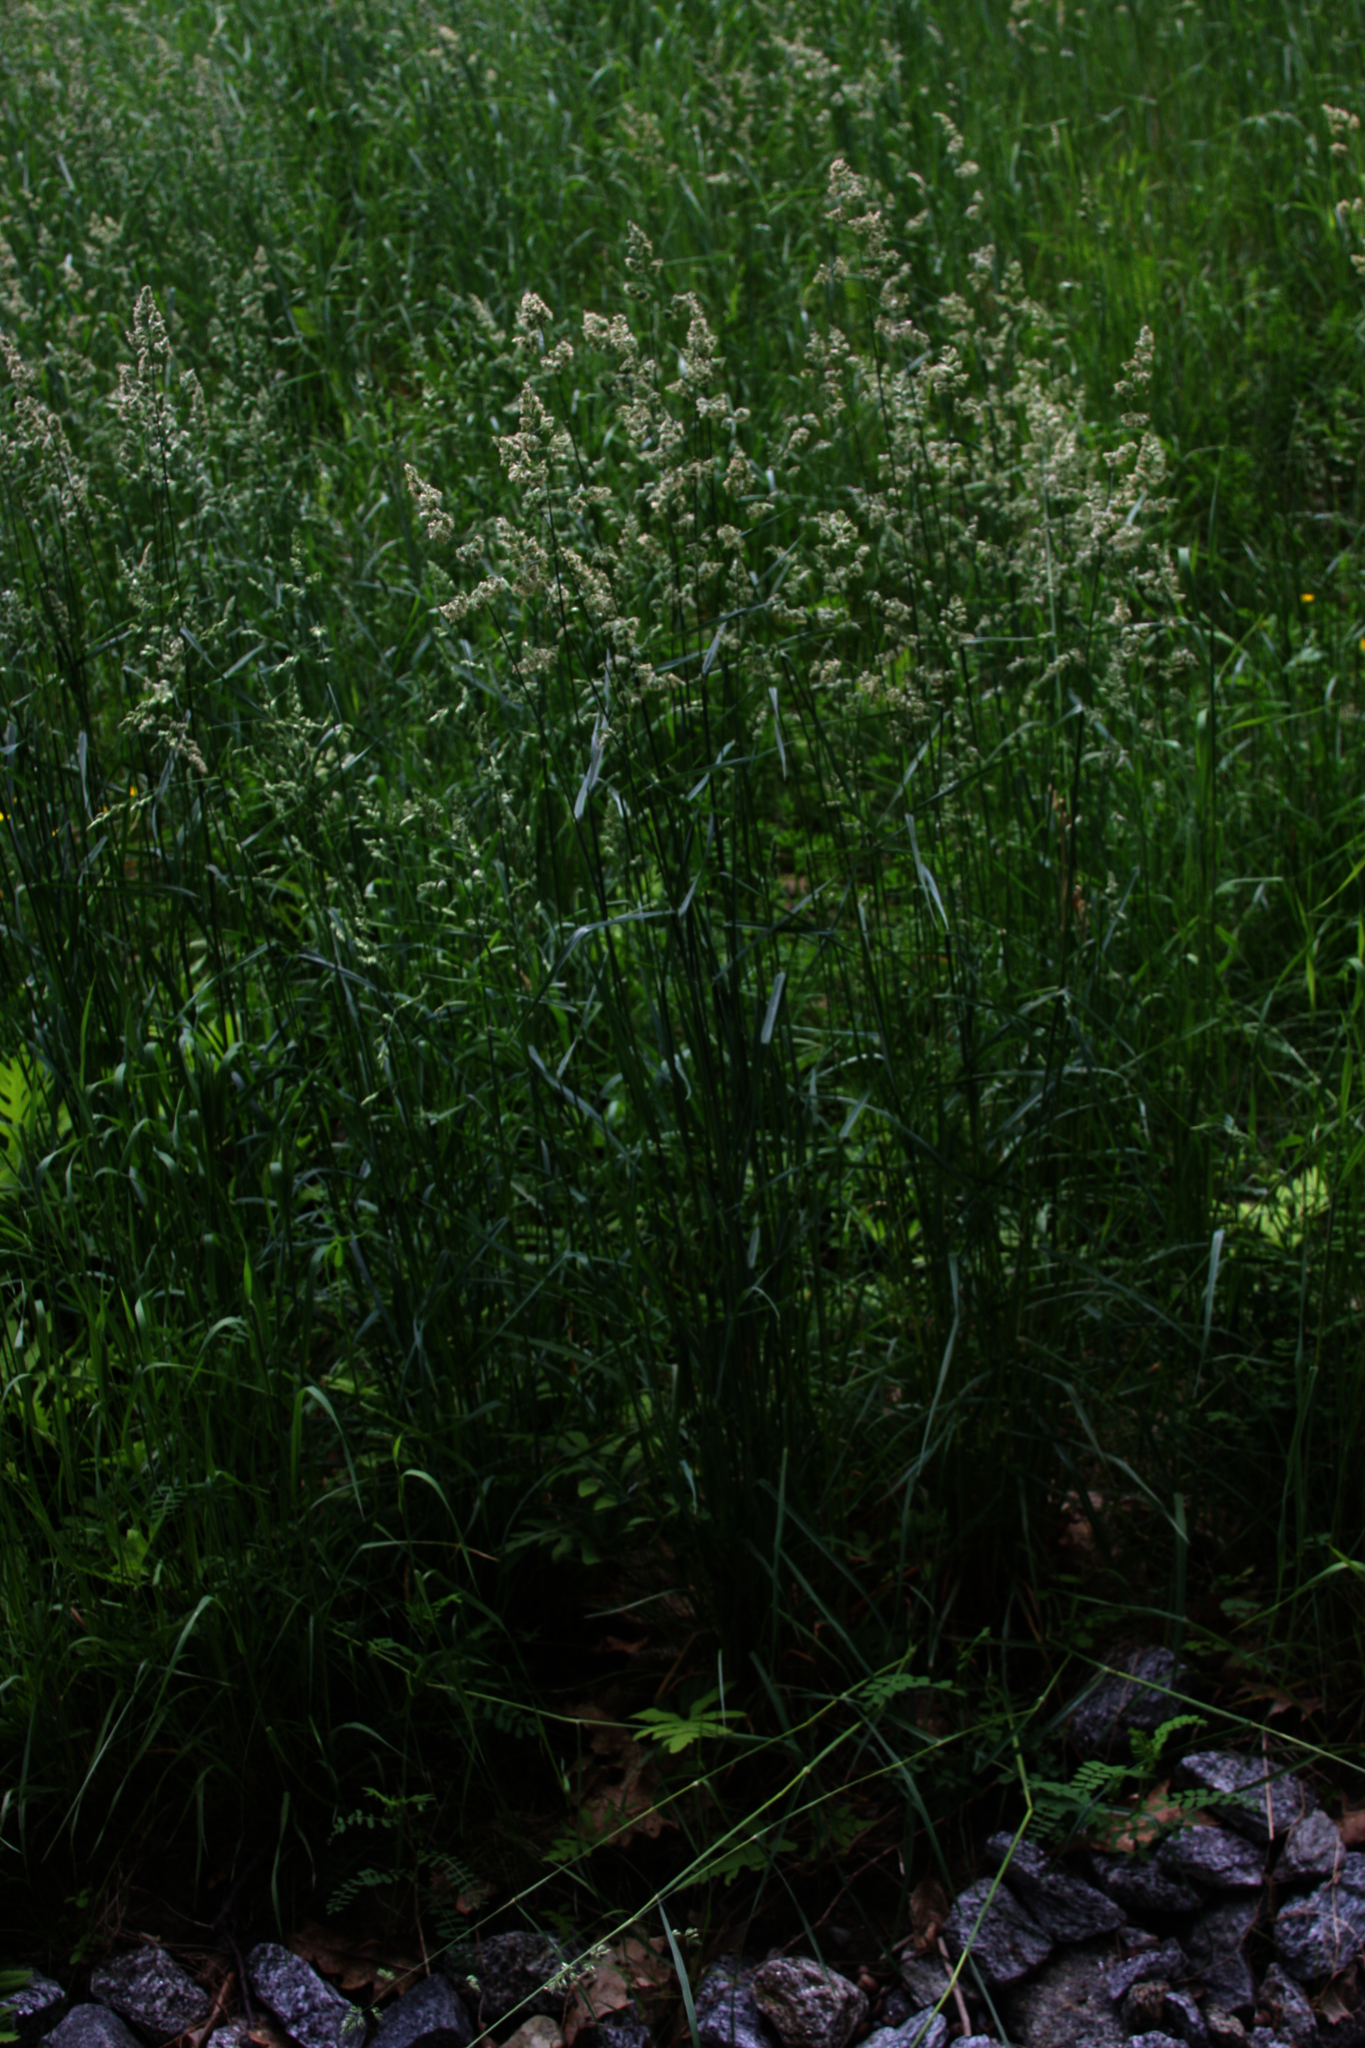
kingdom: Plantae
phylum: Tracheophyta
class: Liliopsida
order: Poales
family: Poaceae
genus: Dactylis
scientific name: Dactylis glomerata
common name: Orchardgrass
